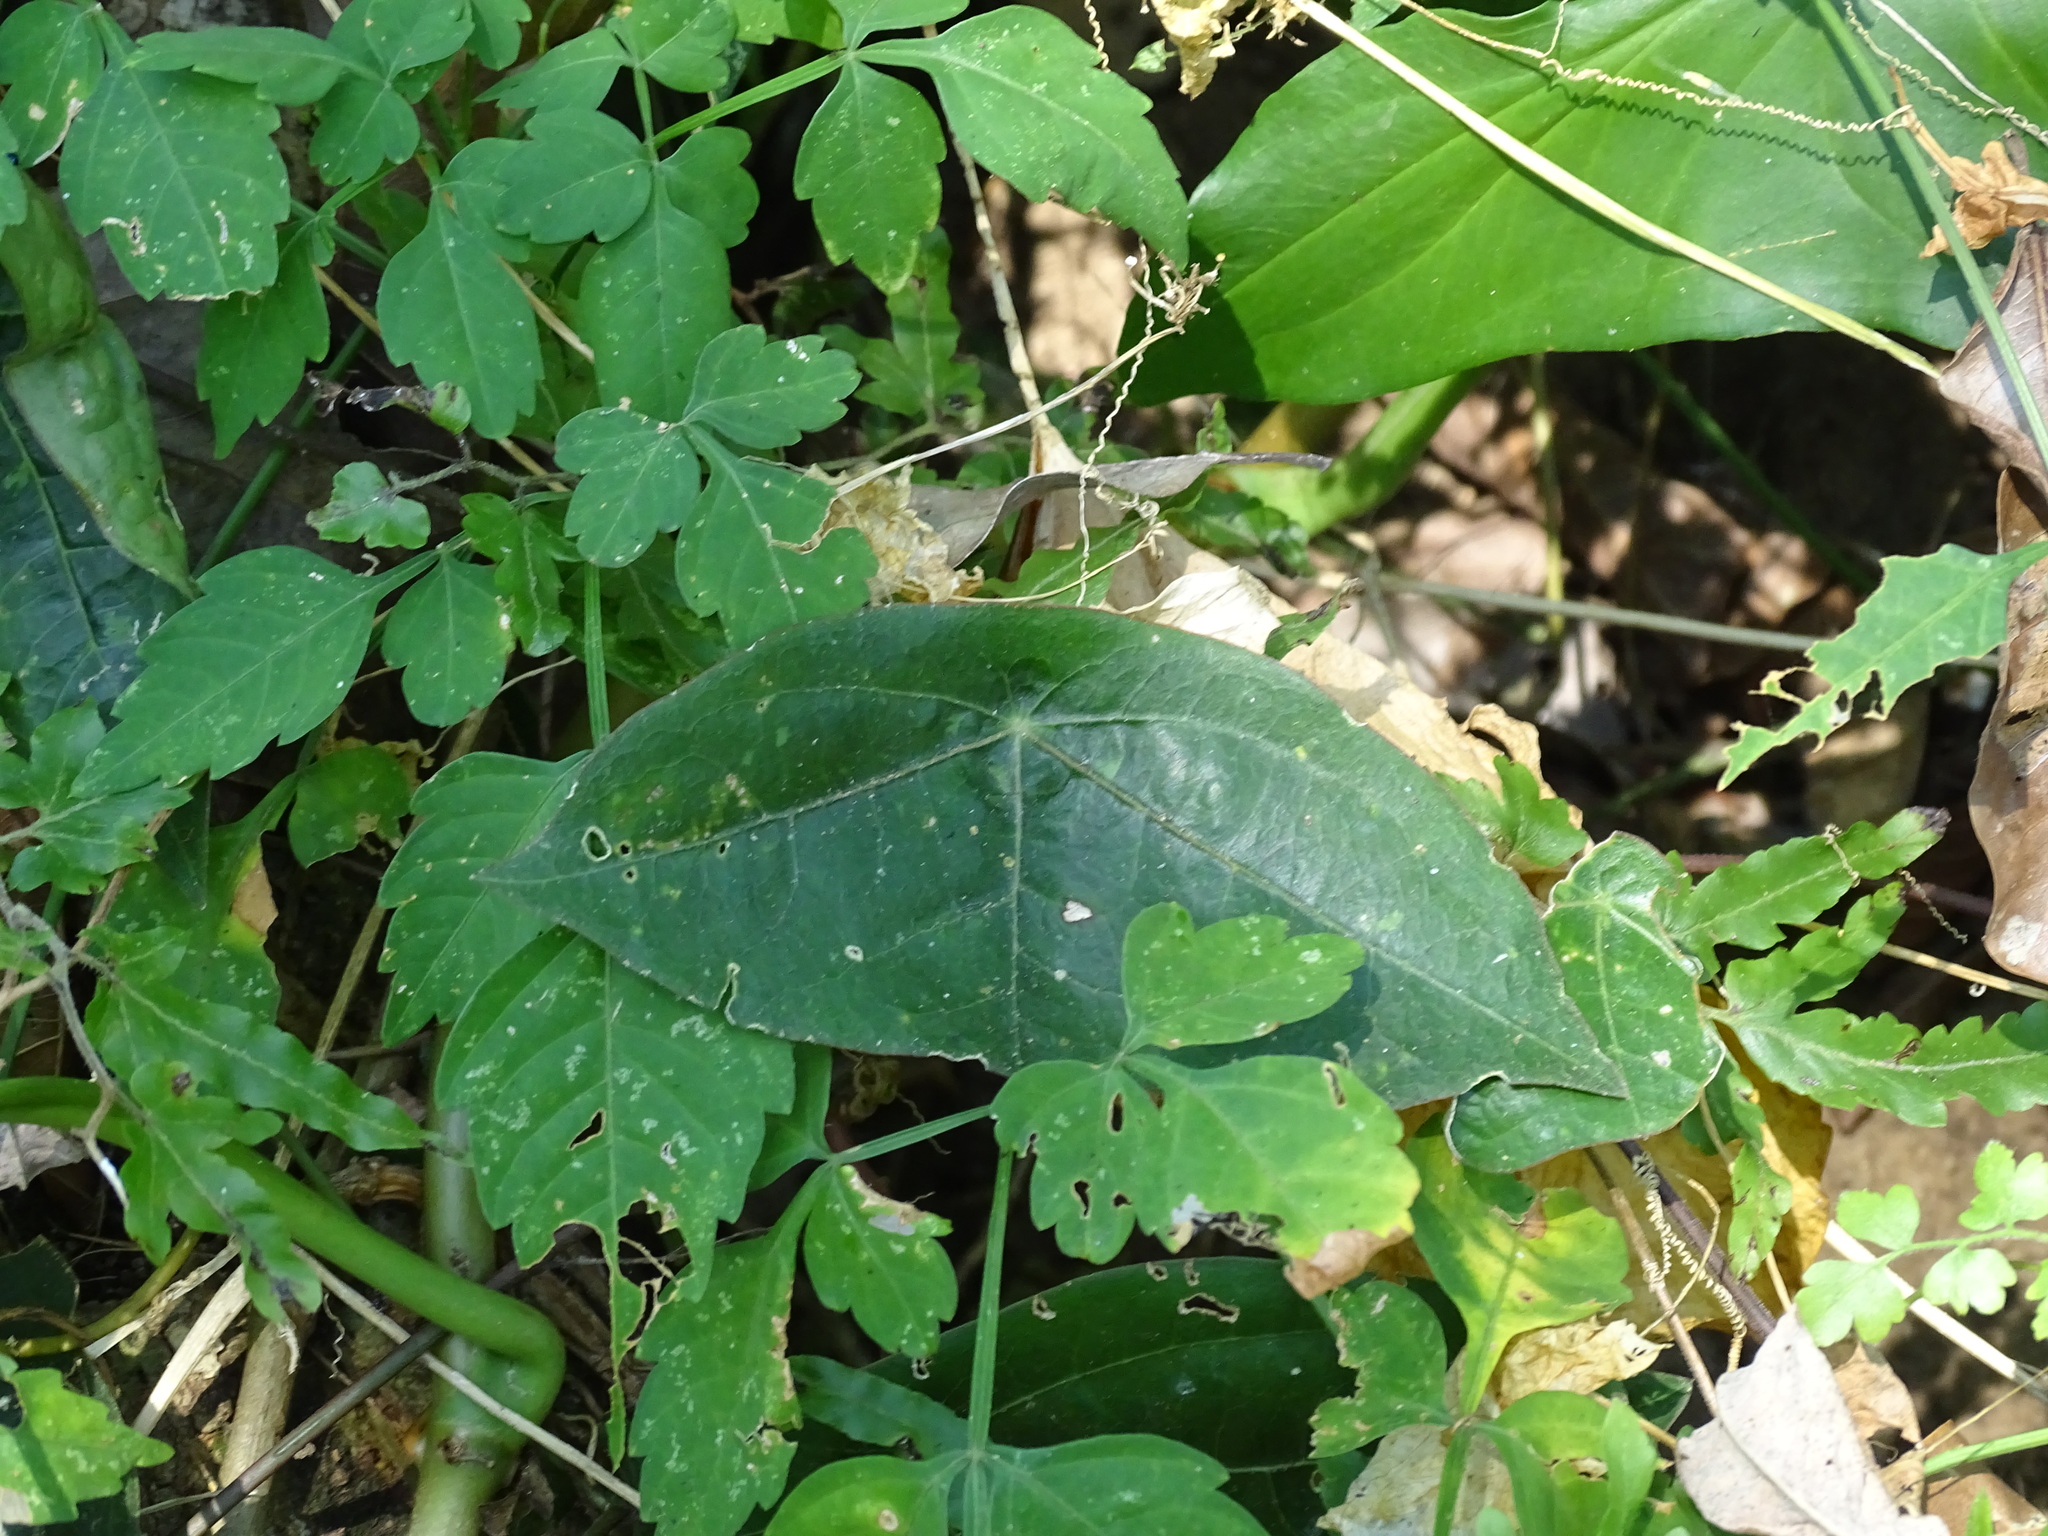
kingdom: Plantae
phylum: Tracheophyta
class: Magnoliopsida
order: Malpighiales
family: Passifloraceae
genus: Passiflora
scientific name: Passiflora sexocellata
